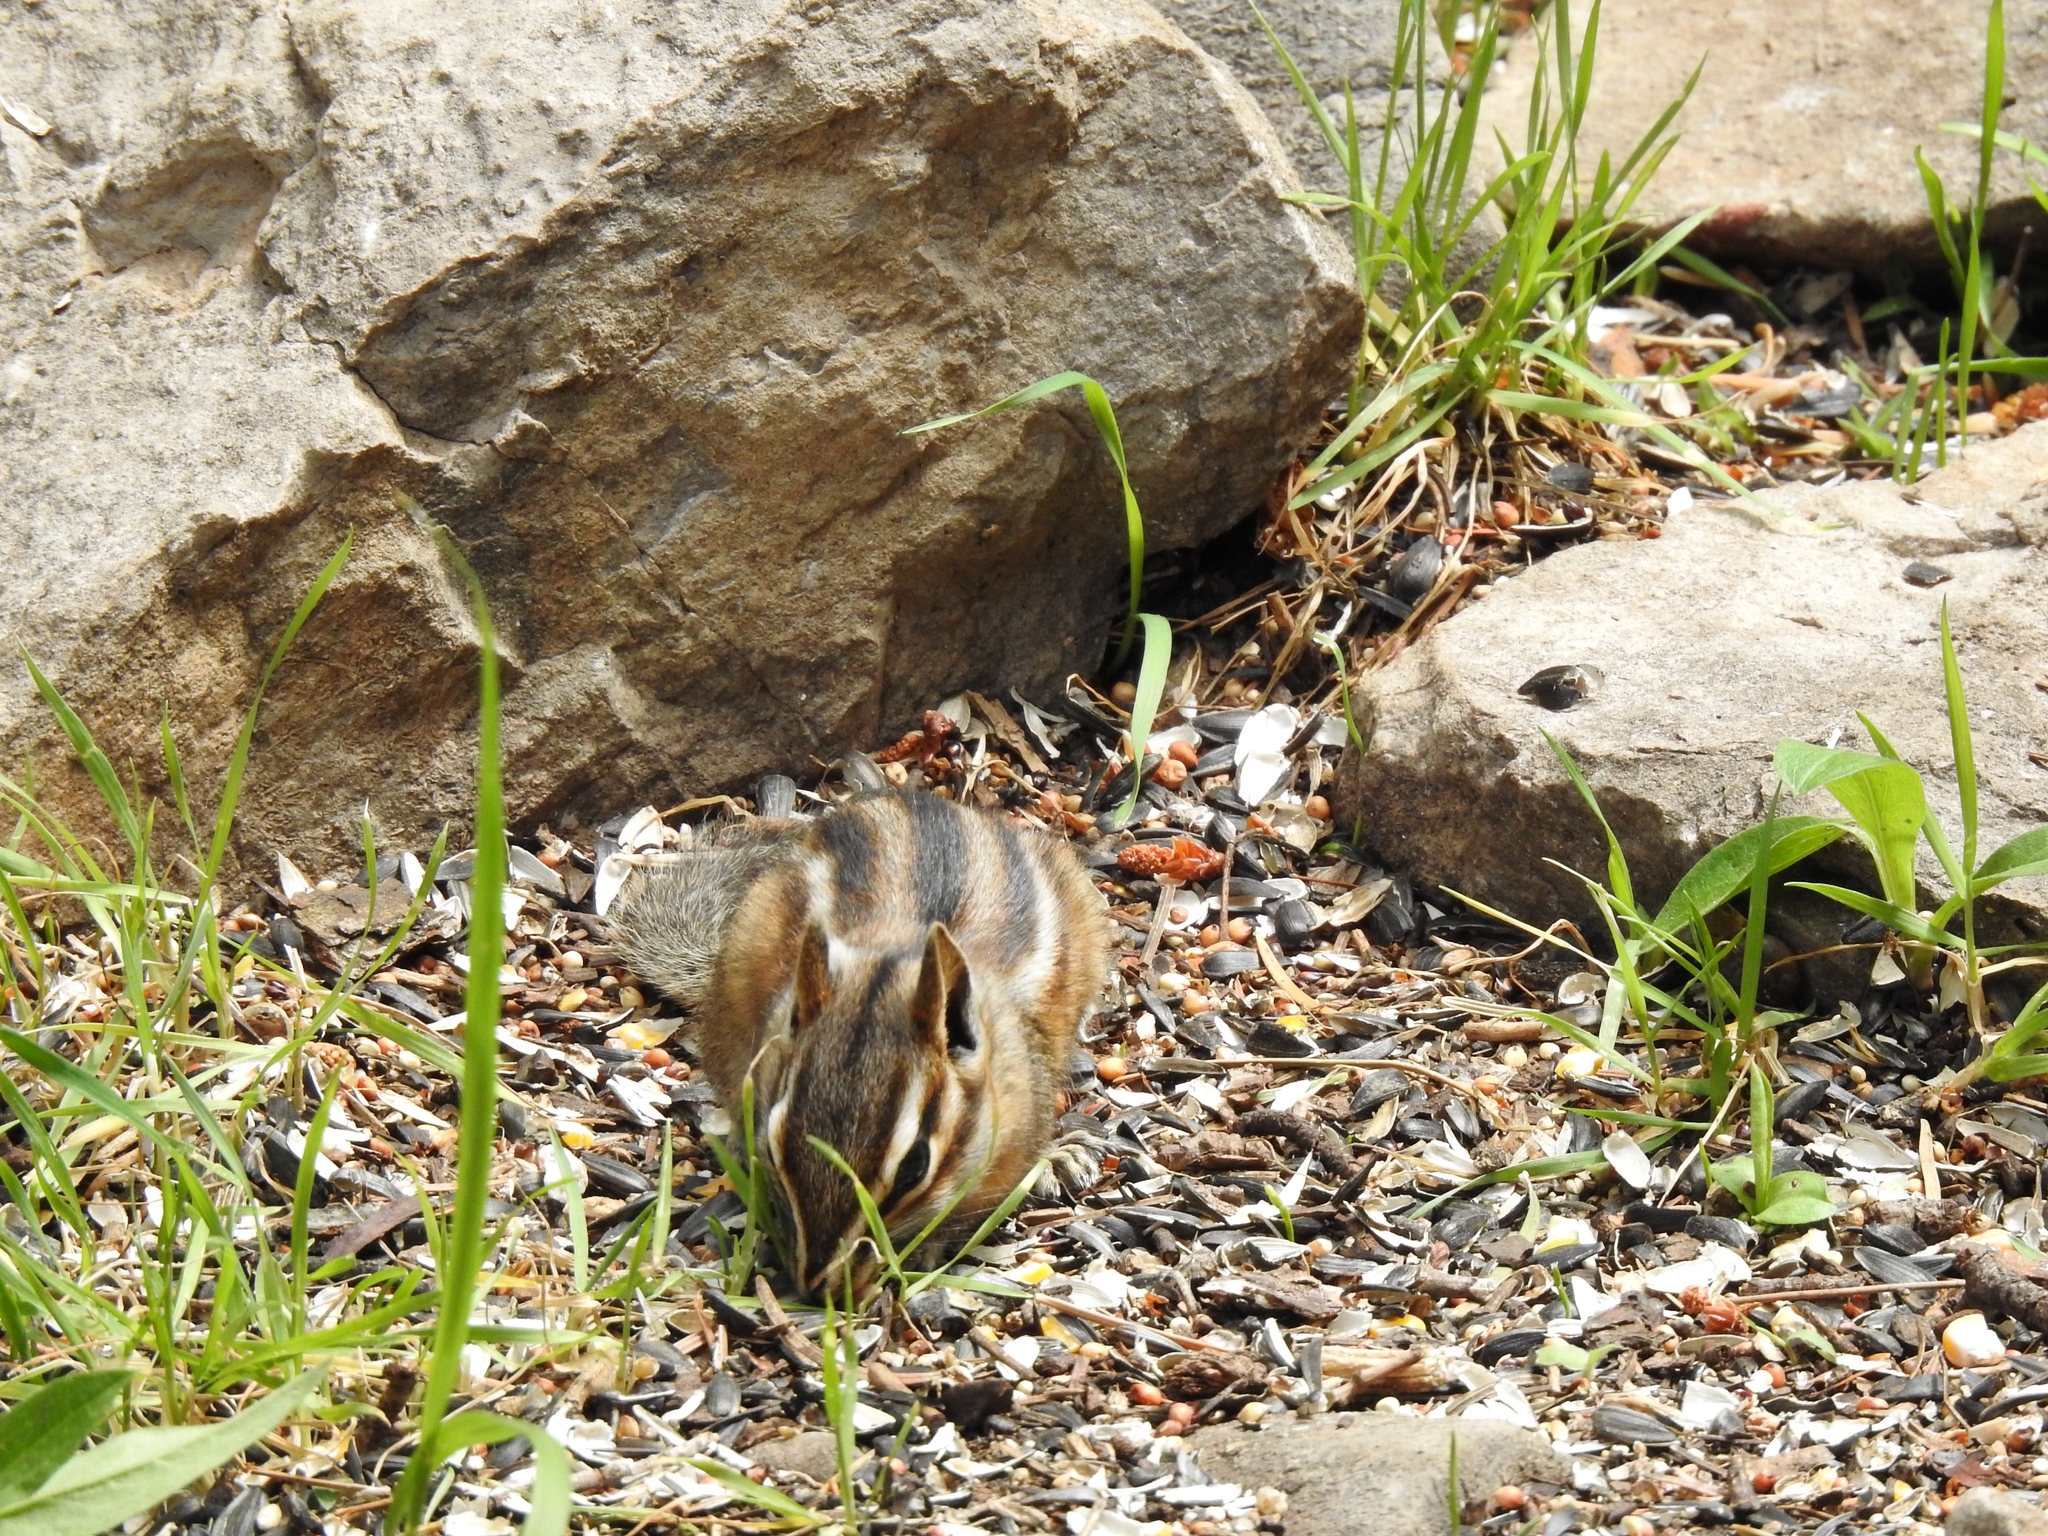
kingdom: Animalia
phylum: Chordata
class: Mammalia
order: Rodentia
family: Sciuridae
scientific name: Sciuridae
